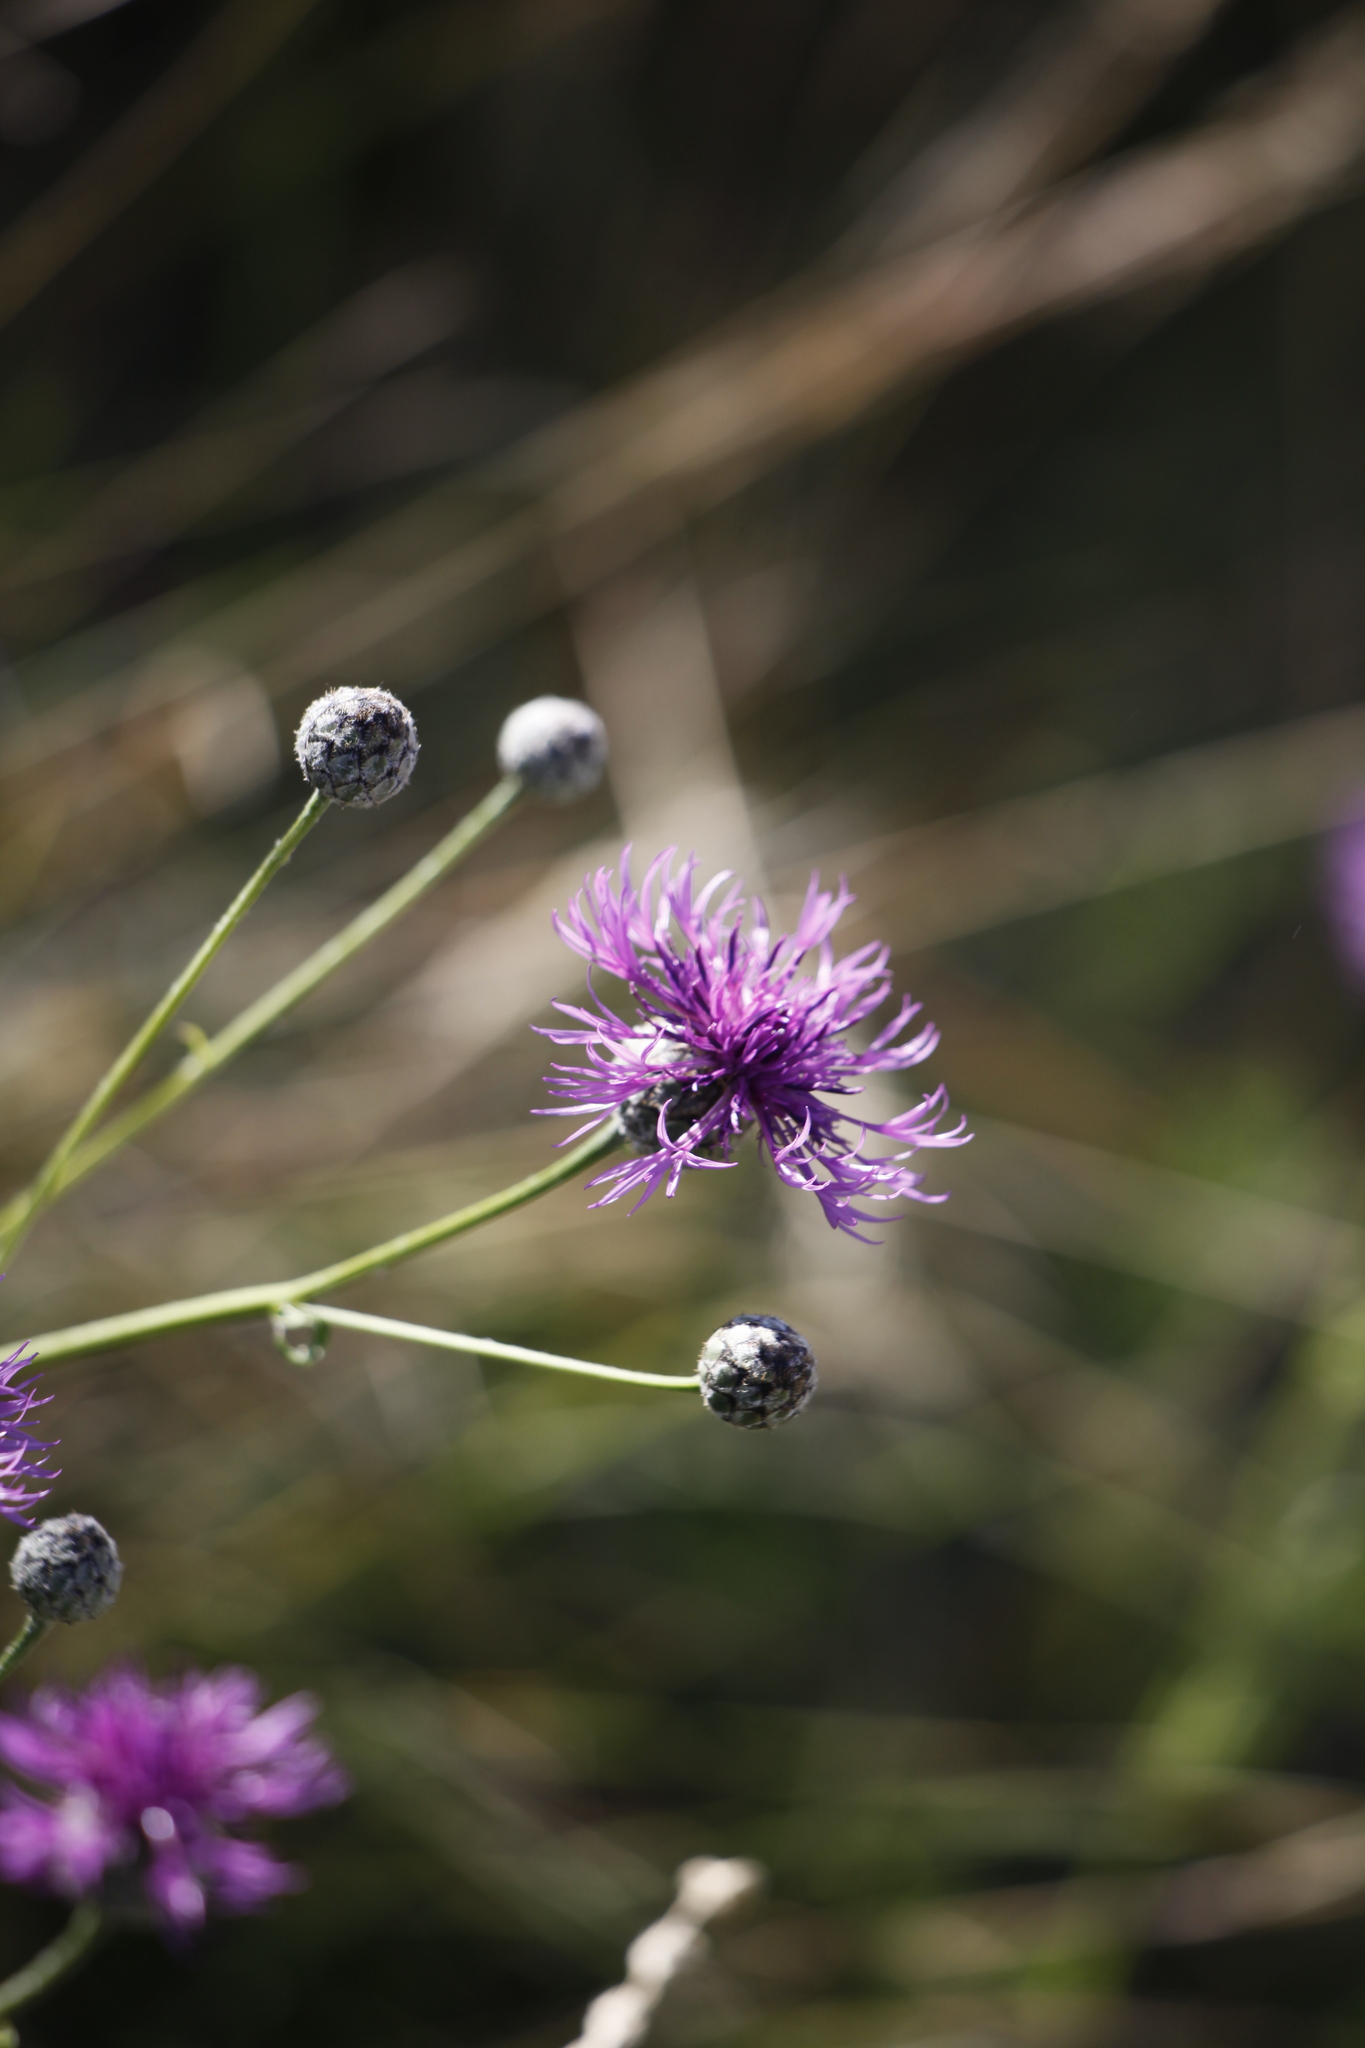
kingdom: Plantae
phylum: Tracheophyta
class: Magnoliopsida
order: Asterales
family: Asteraceae
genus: Centaurea
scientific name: Centaurea scabiosa
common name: Greater knapweed
